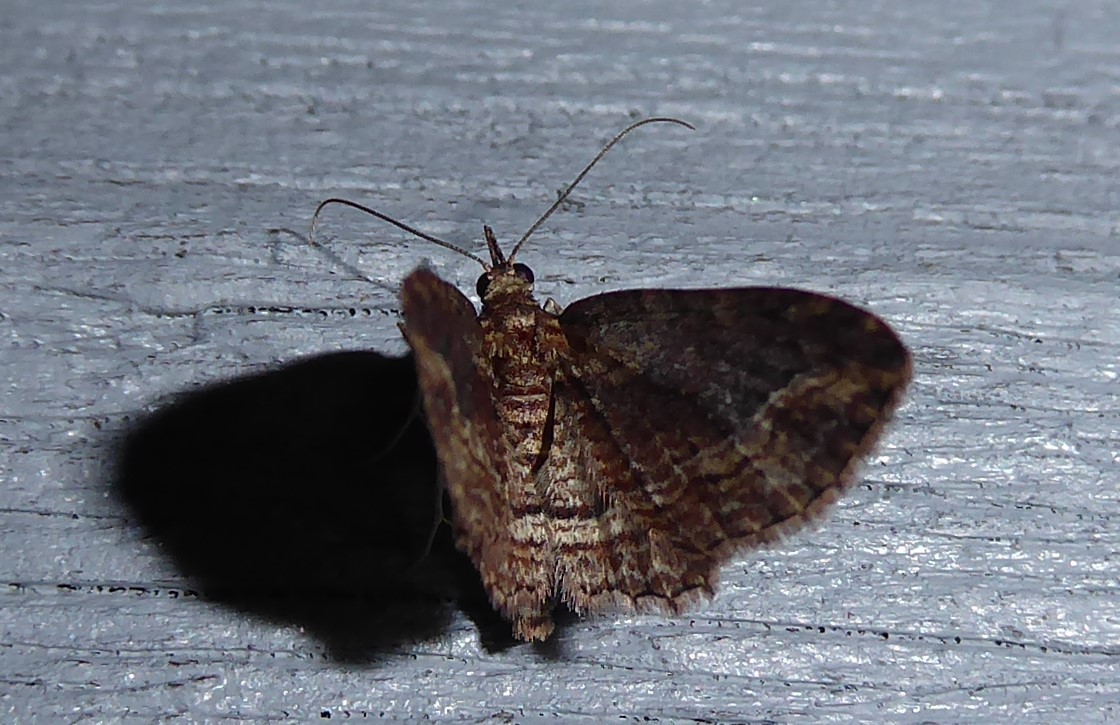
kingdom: Animalia
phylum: Arthropoda
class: Insecta
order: Lepidoptera
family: Geometridae
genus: Chloroclystis
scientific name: Chloroclystis filata
